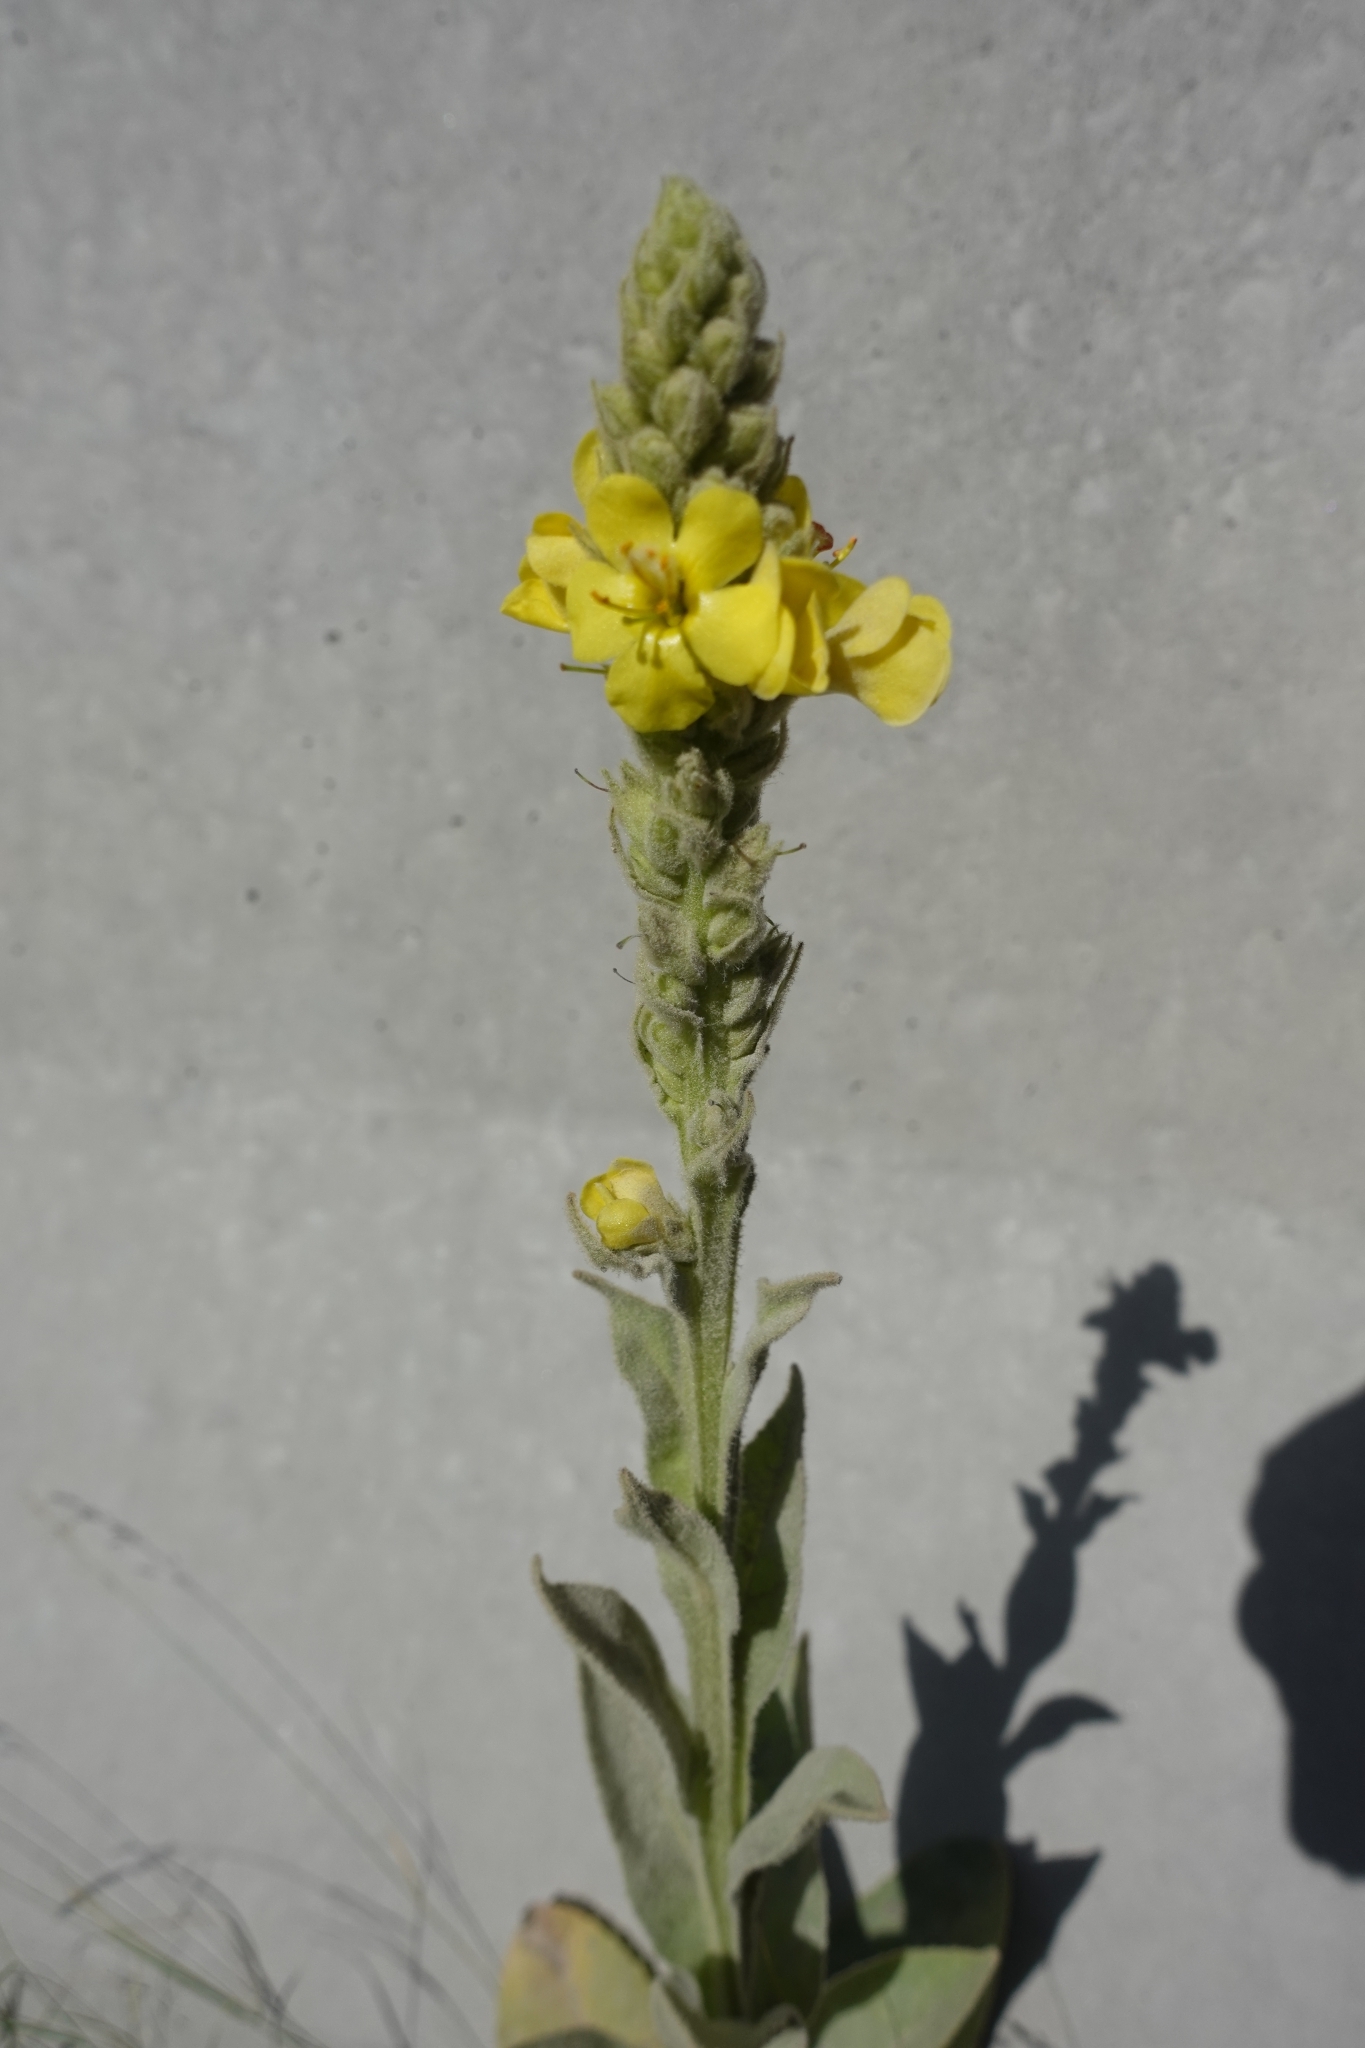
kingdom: Plantae
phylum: Tracheophyta
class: Magnoliopsida
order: Lamiales
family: Scrophulariaceae
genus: Verbascum
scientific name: Verbascum thapsus
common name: Common mullein
